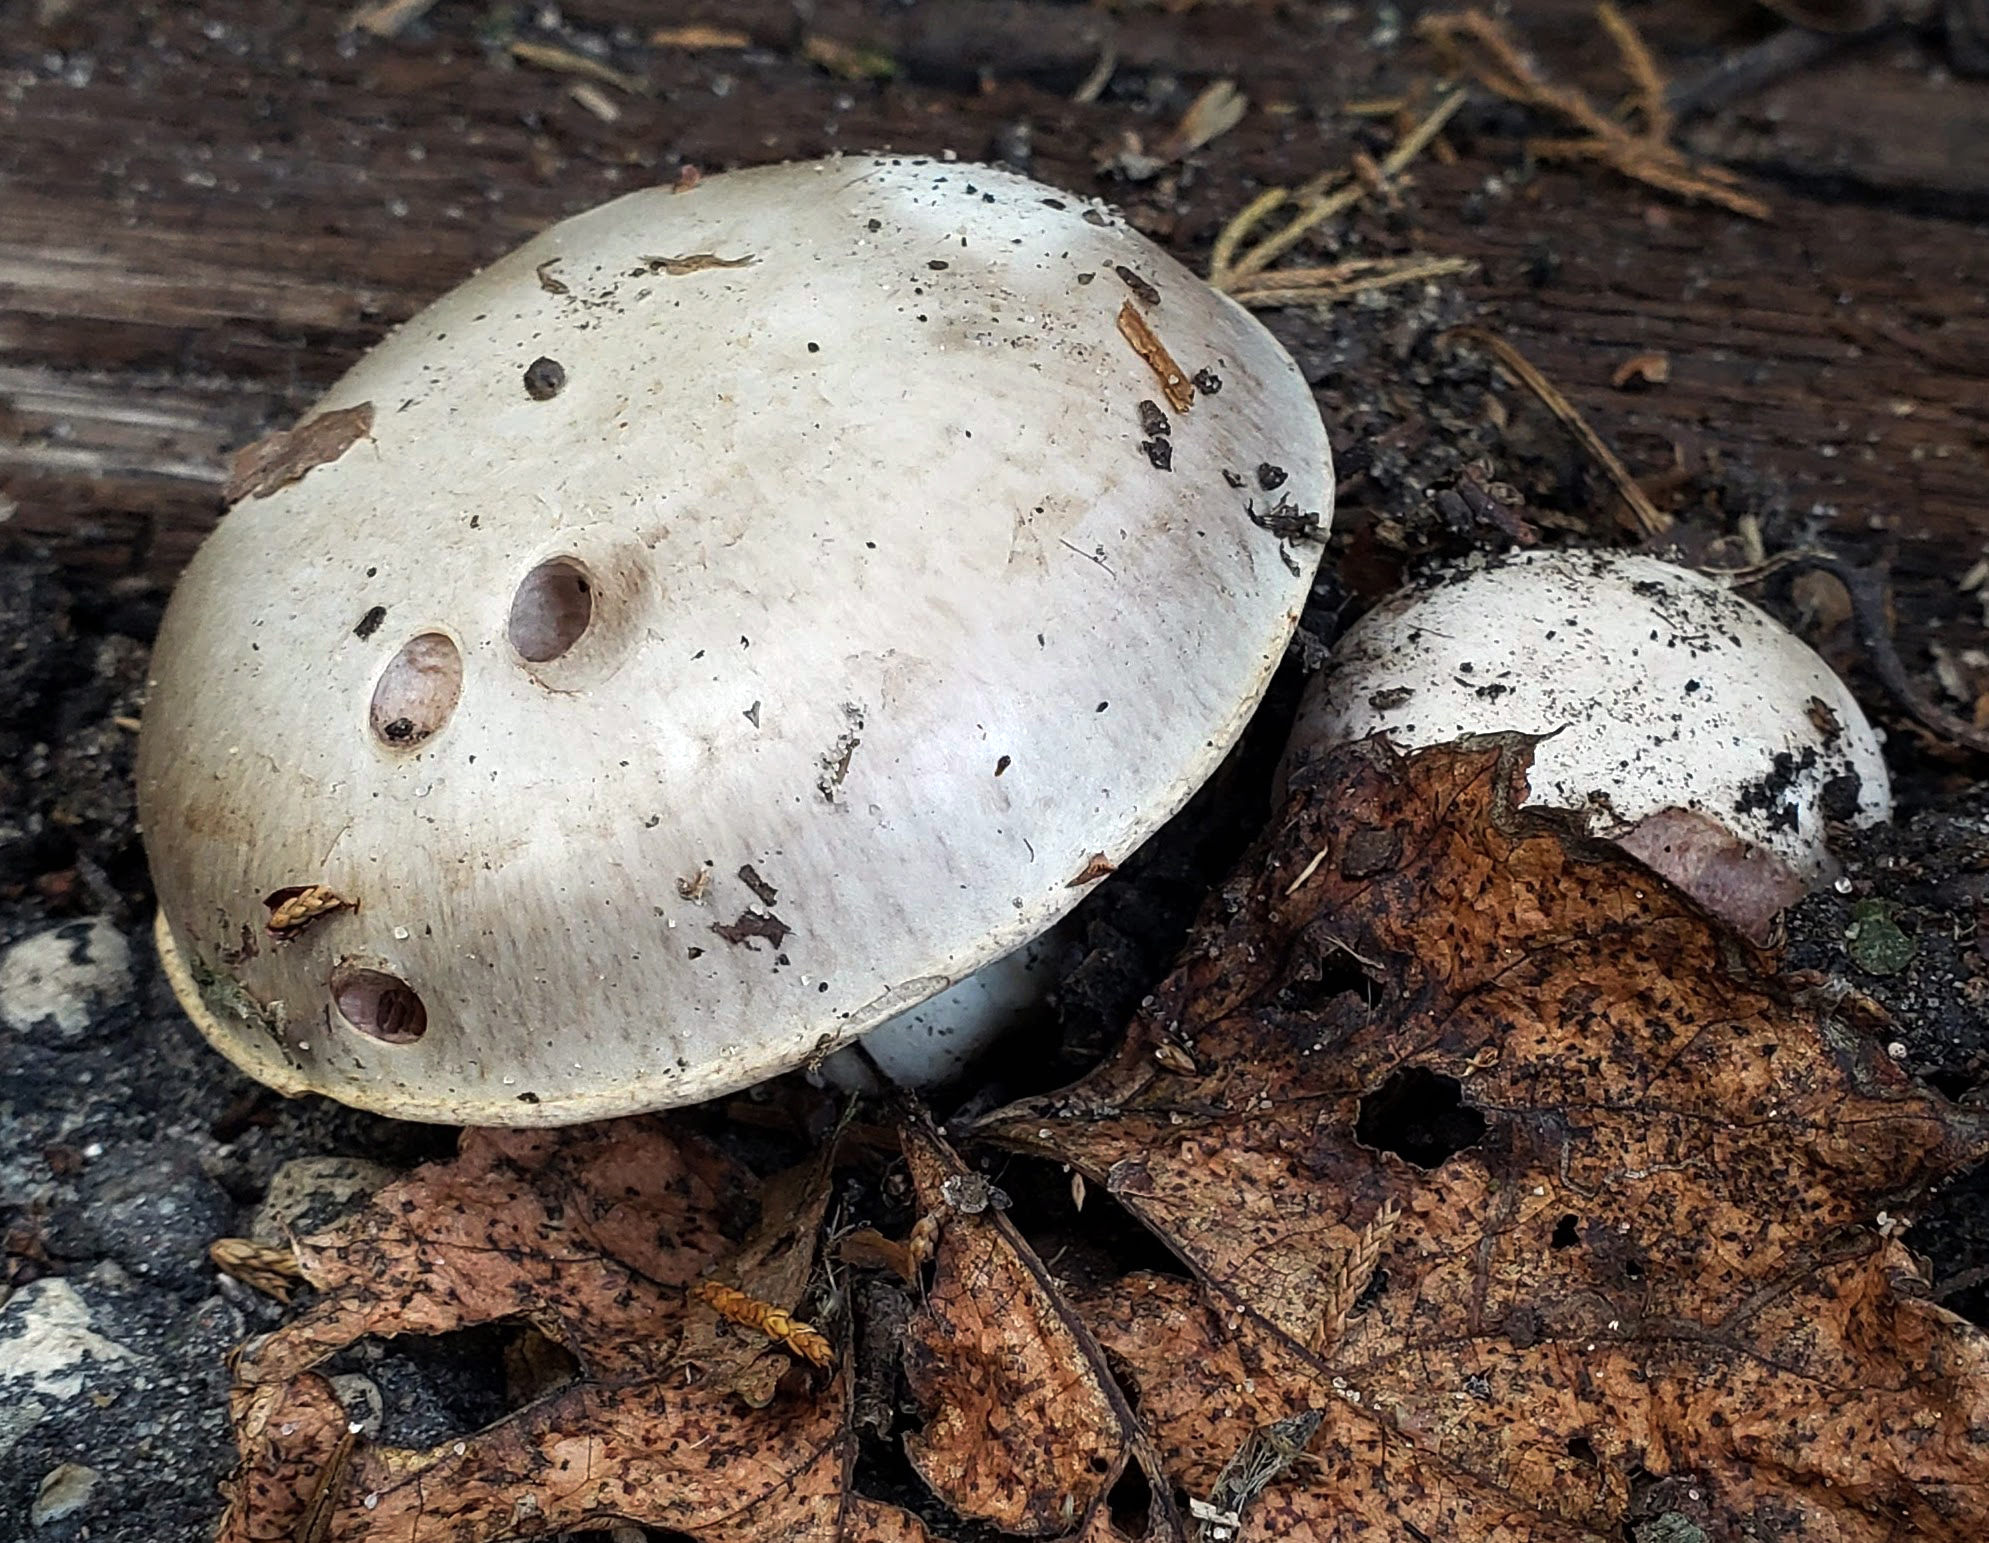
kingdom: Fungi
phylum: Basidiomycota
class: Agaricomycetes
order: Agaricales
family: Agaricaceae
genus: Agaricus
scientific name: Agaricus bitorquis
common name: Pavement mushroom
